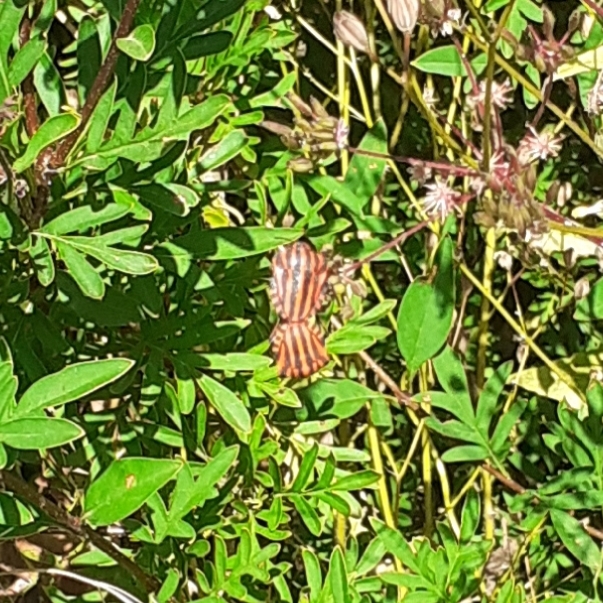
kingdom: Animalia
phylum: Arthropoda
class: Insecta
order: Hemiptera
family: Pentatomidae
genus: Graphosoma
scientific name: Graphosoma italicum
